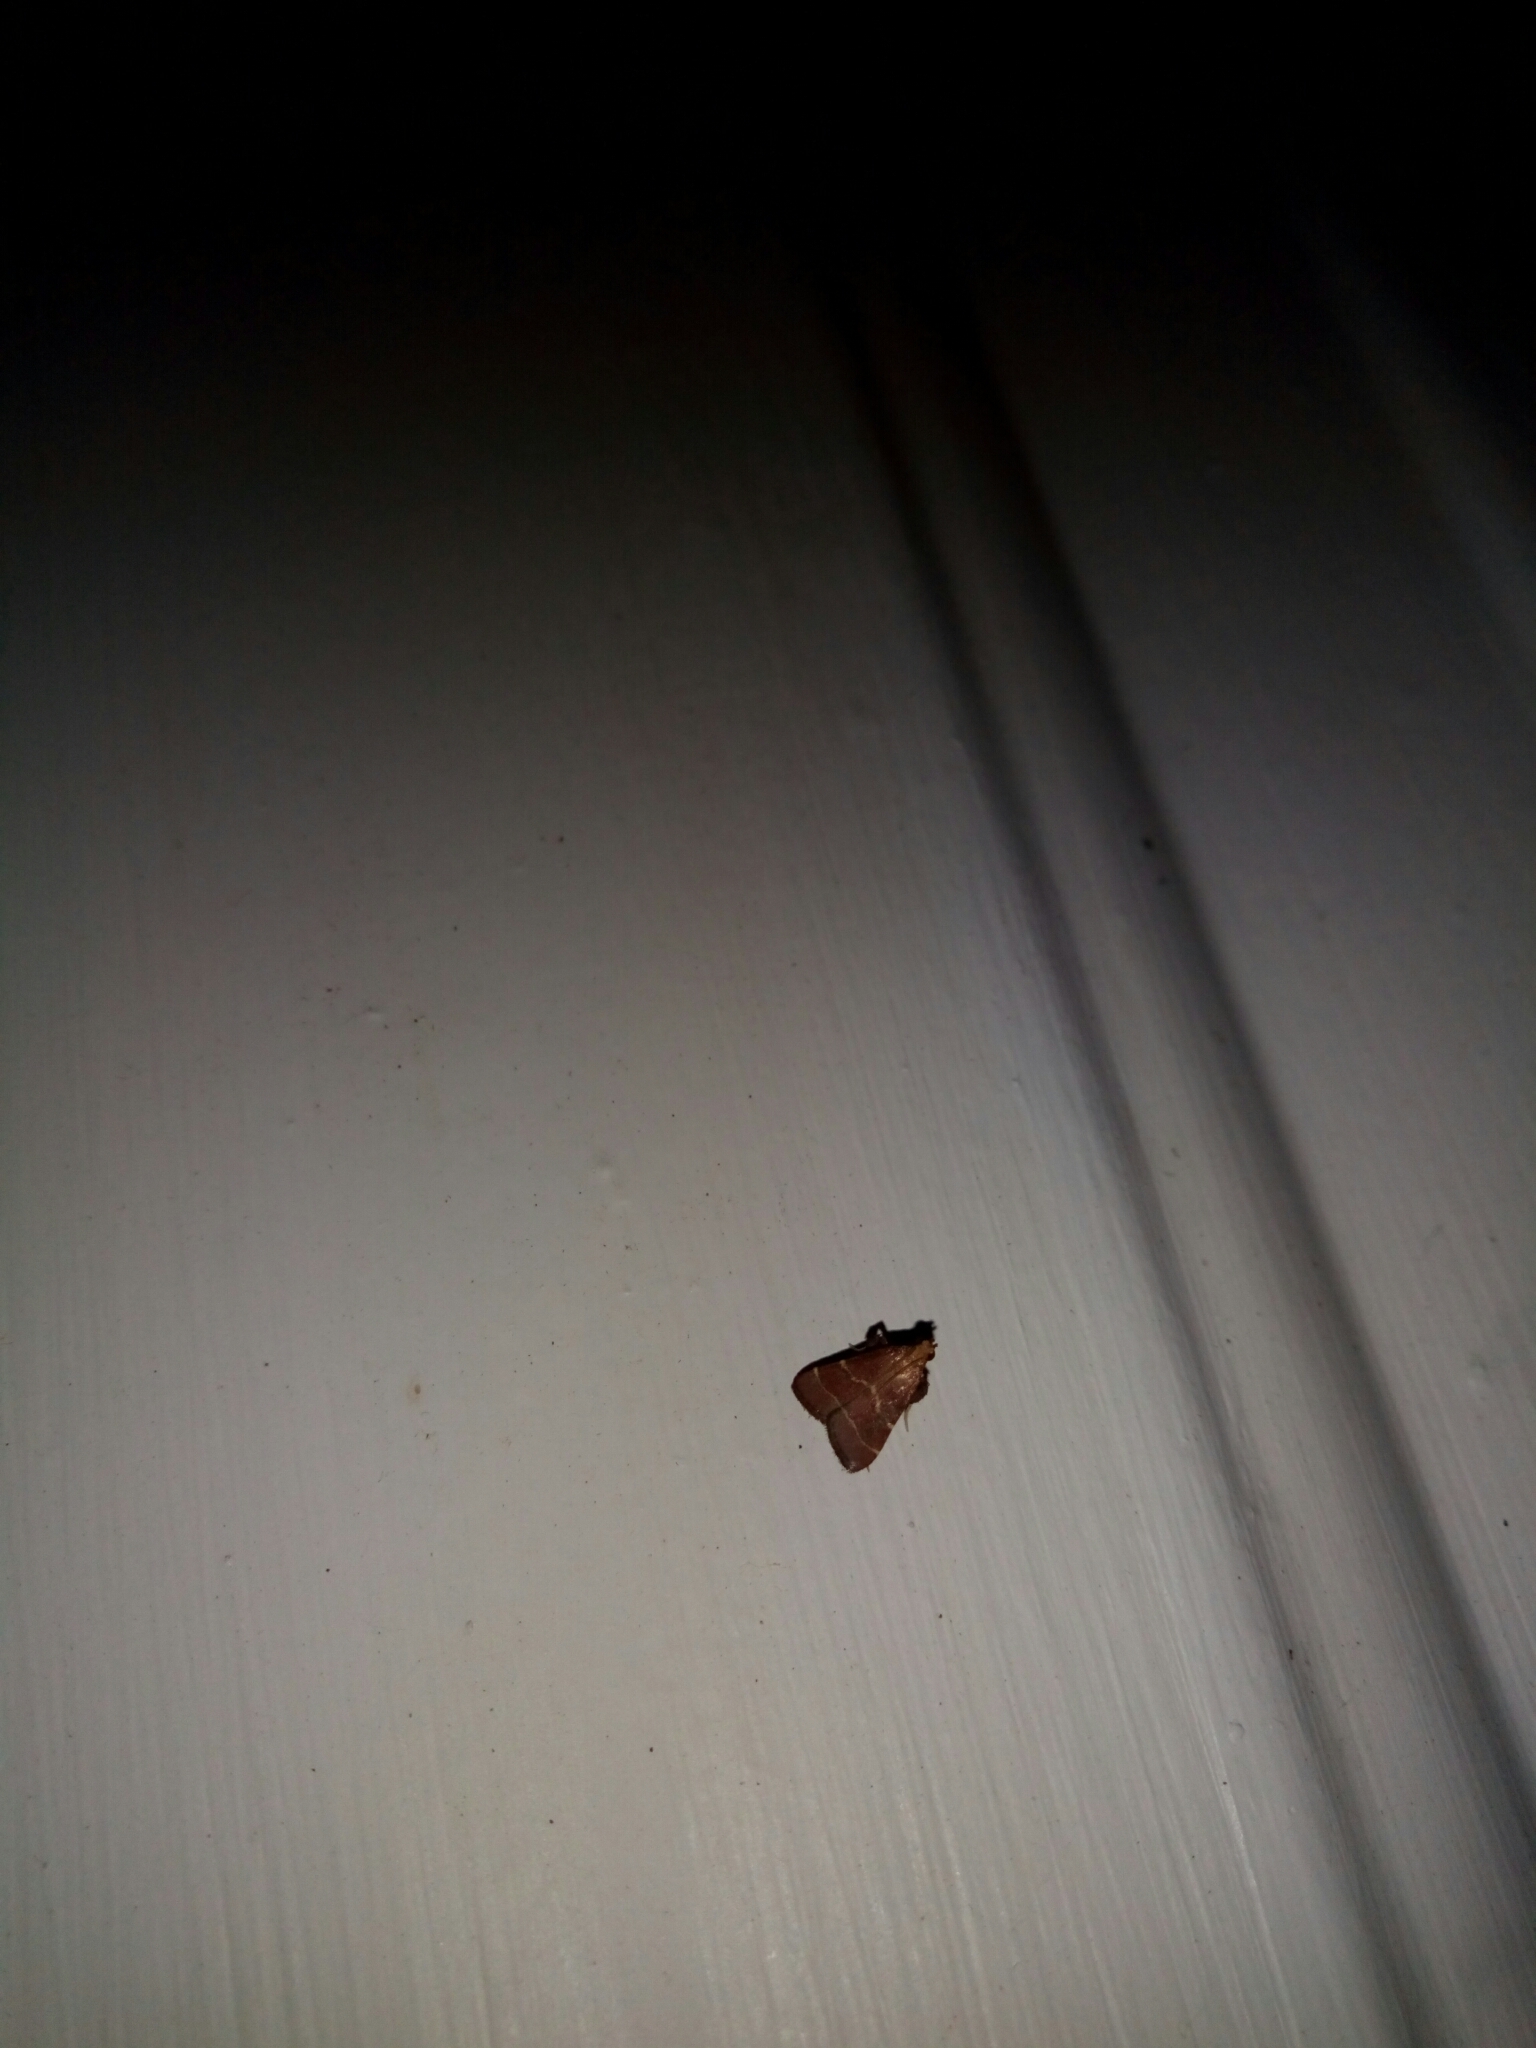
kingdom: Animalia
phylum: Arthropoda
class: Insecta
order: Lepidoptera
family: Pyralidae
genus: Arta
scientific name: Arta statalis
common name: Posturing arta moth
